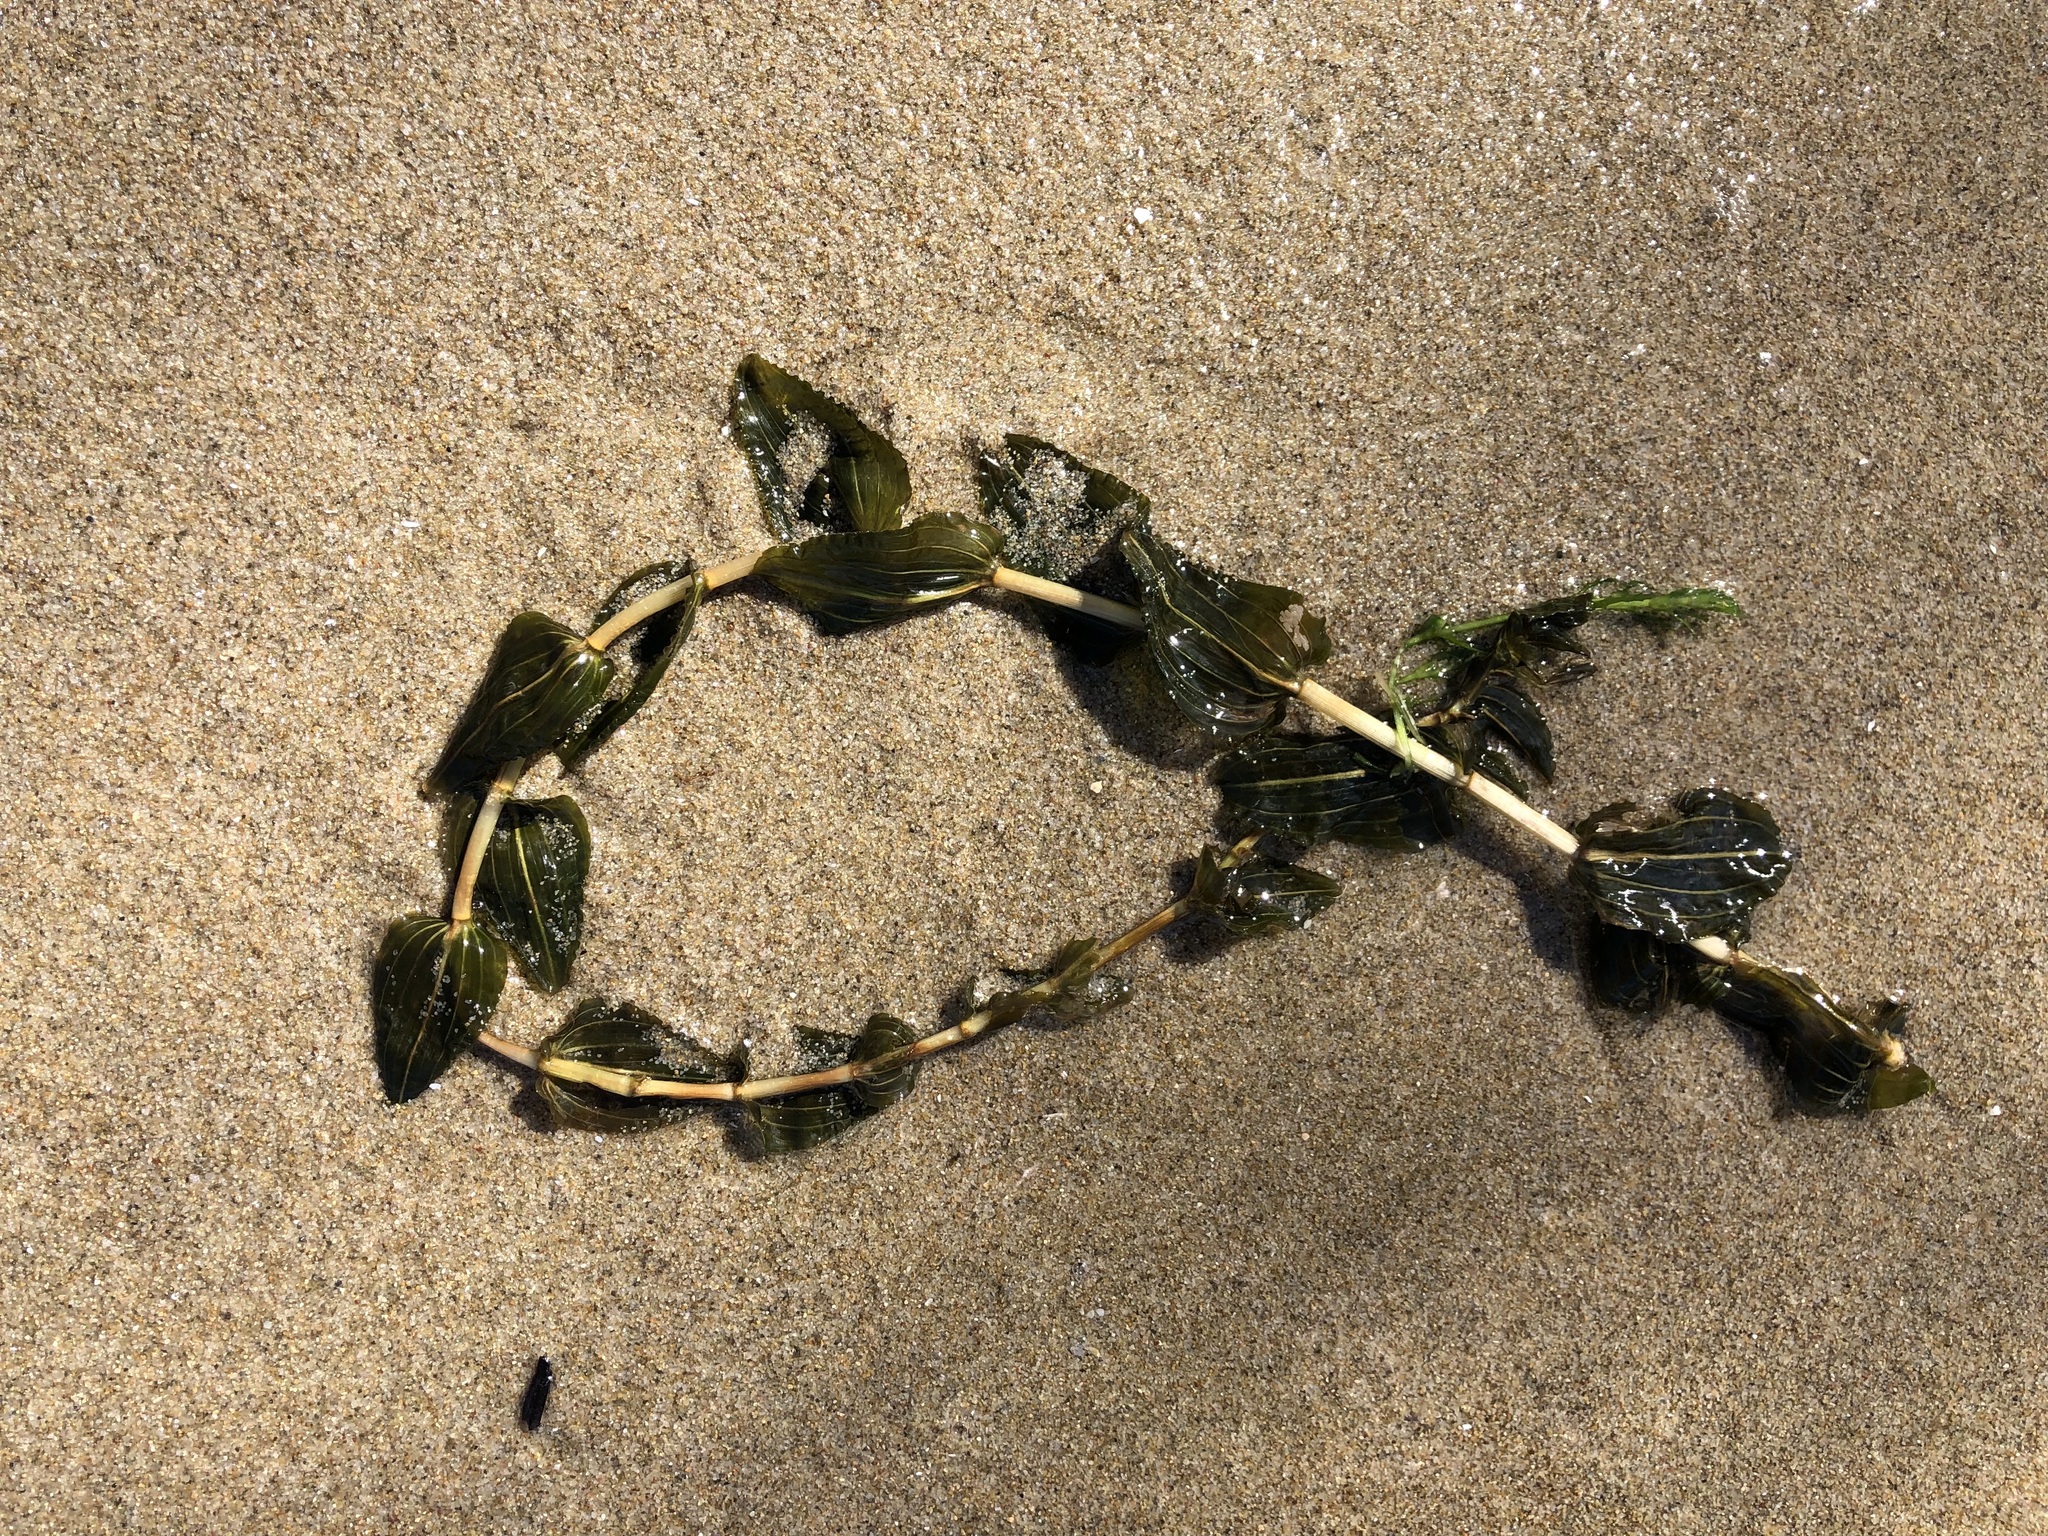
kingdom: Plantae
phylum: Tracheophyta
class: Liliopsida
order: Alismatales
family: Potamogetonaceae
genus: Potamogeton
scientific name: Potamogeton perfoliatus
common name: Perfoliate pondweed
